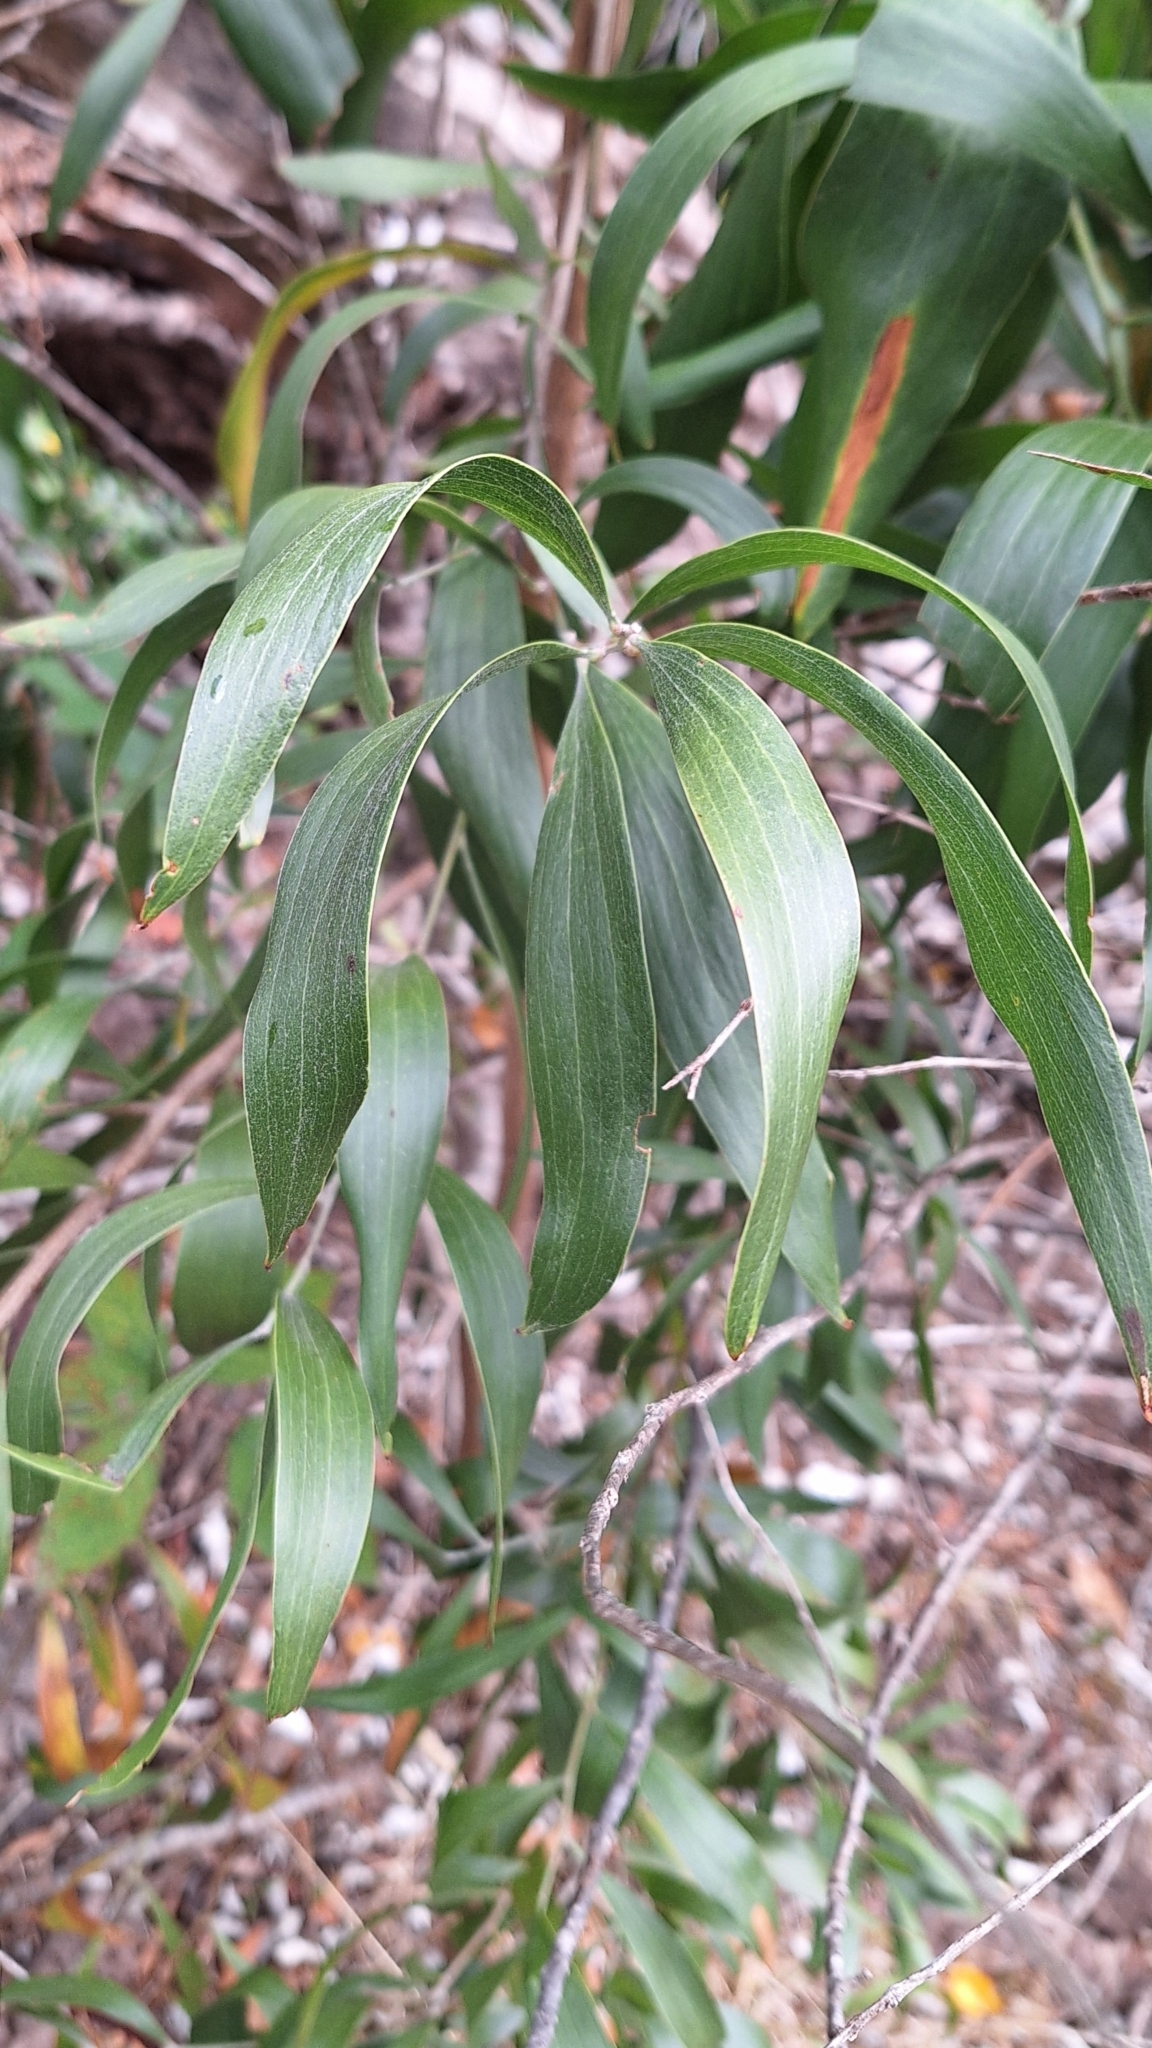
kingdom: Plantae
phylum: Tracheophyta
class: Magnoliopsida
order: Fabales
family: Fabaceae
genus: Acacia
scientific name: Acacia melanoxylon
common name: Blackwood
